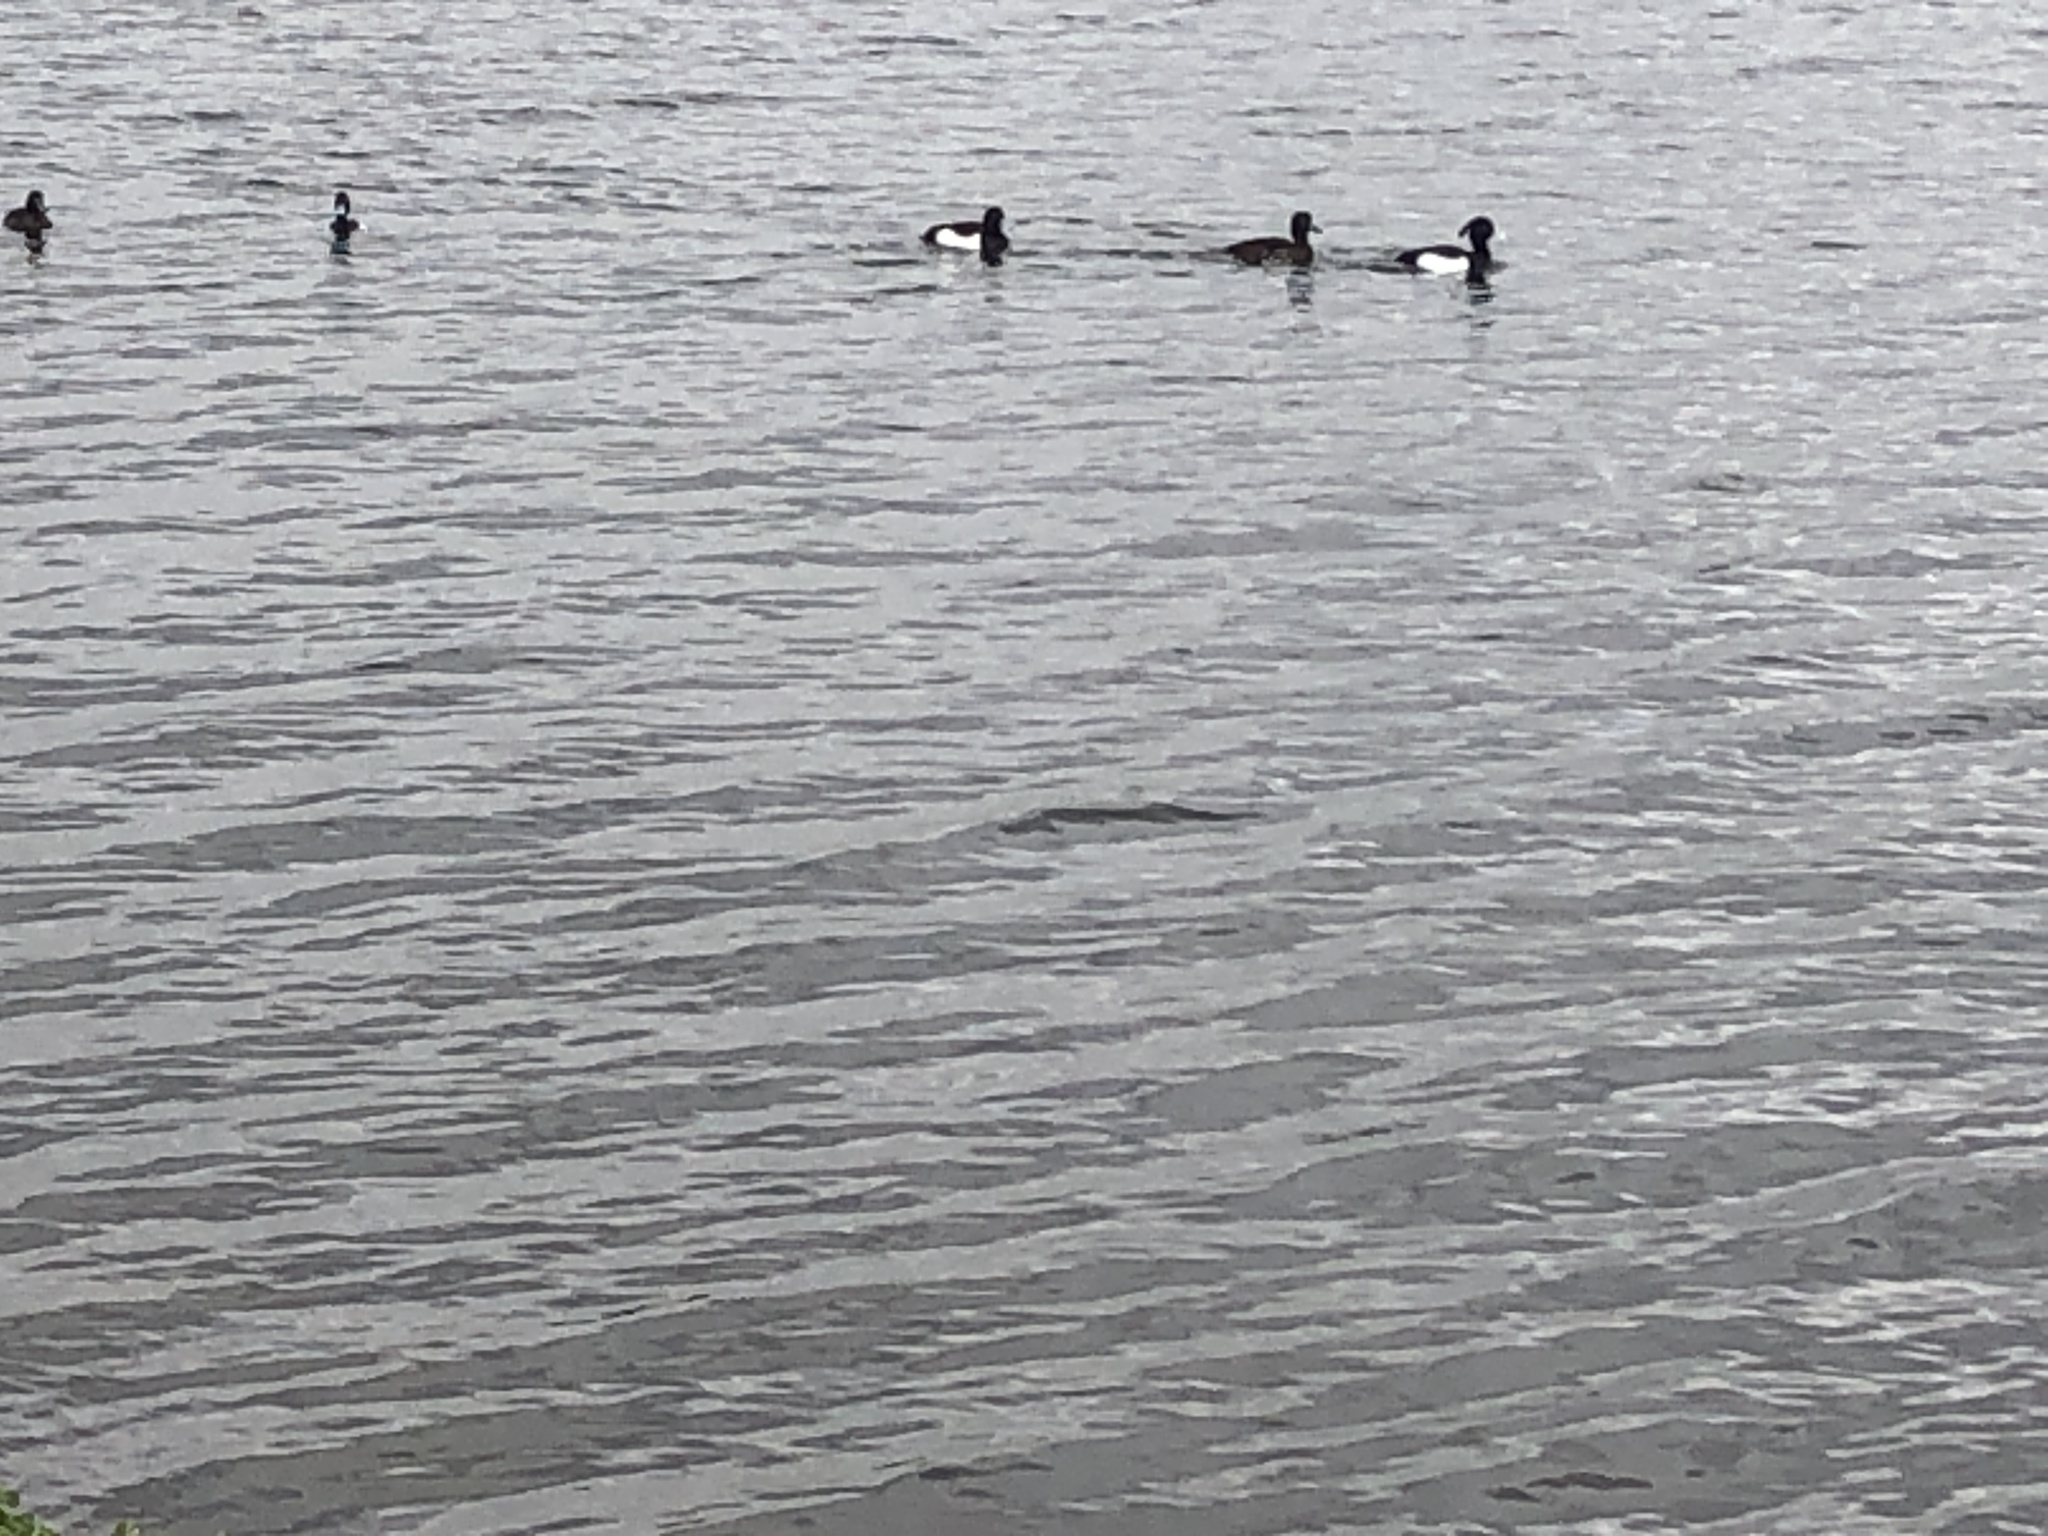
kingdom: Animalia
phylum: Chordata
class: Aves
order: Anseriformes
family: Anatidae
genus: Aythya
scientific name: Aythya fuligula
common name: Tufted duck
